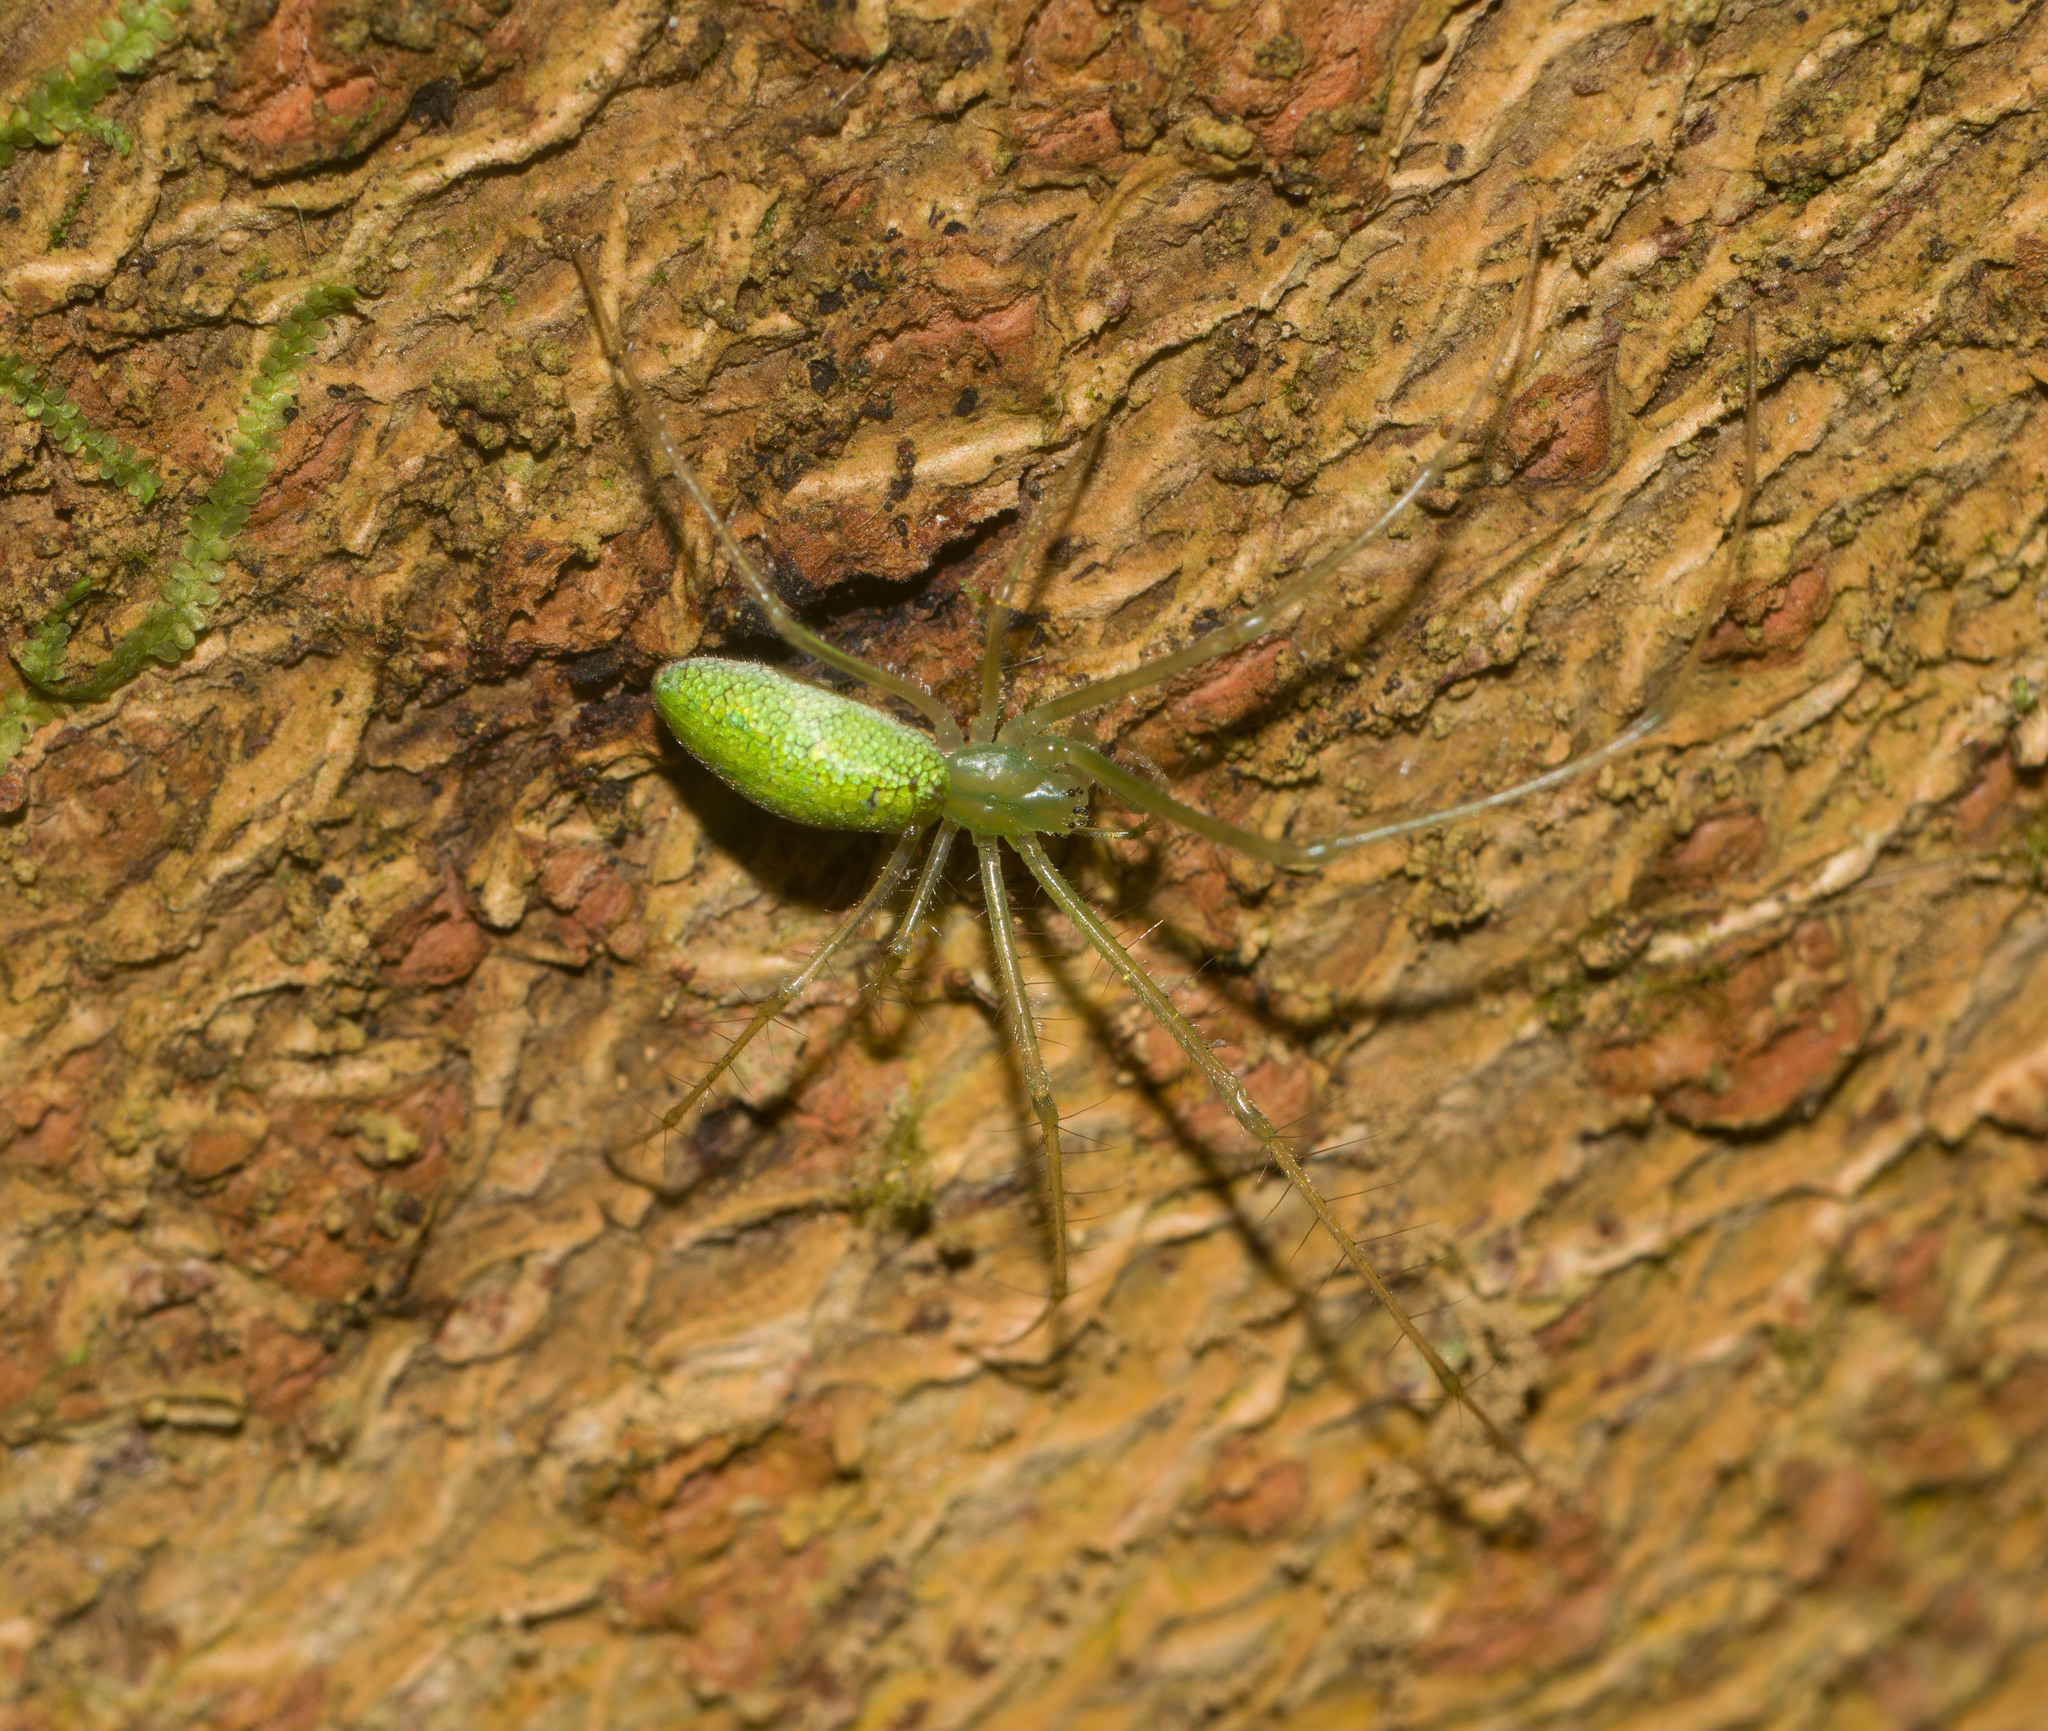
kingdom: Animalia
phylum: Arthropoda
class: Arachnida
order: Araneae
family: Tetragnathidae
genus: Tetragnatha
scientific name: Tetragnatha tantalus
